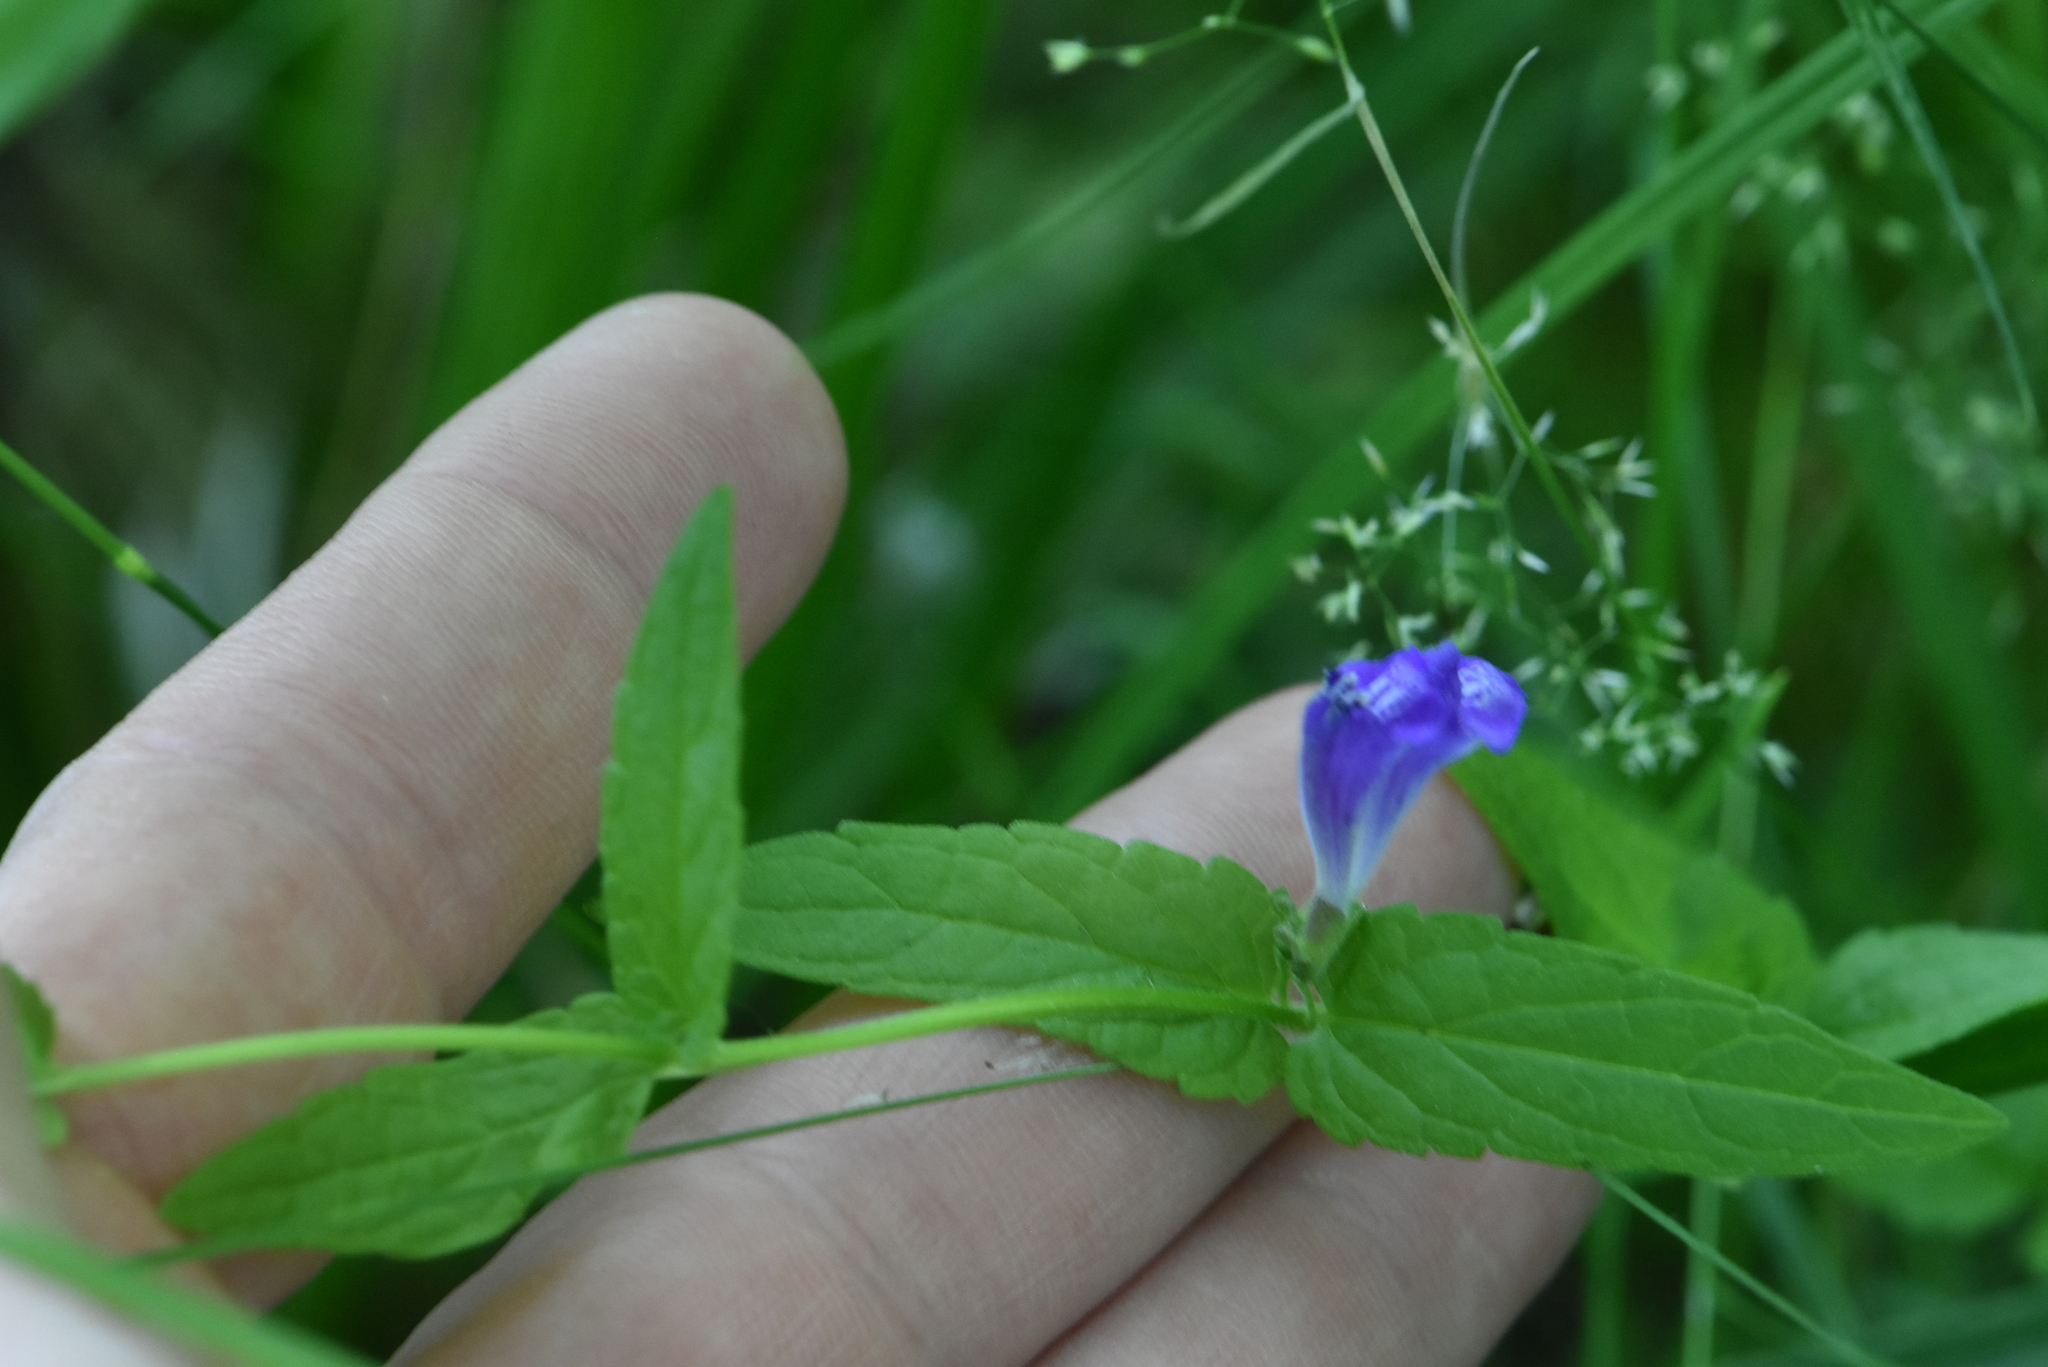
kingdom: Plantae
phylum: Tracheophyta
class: Magnoliopsida
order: Lamiales
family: Lamiaceae
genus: Scutellaria
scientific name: Scutellaria galericulata
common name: Skullcap
